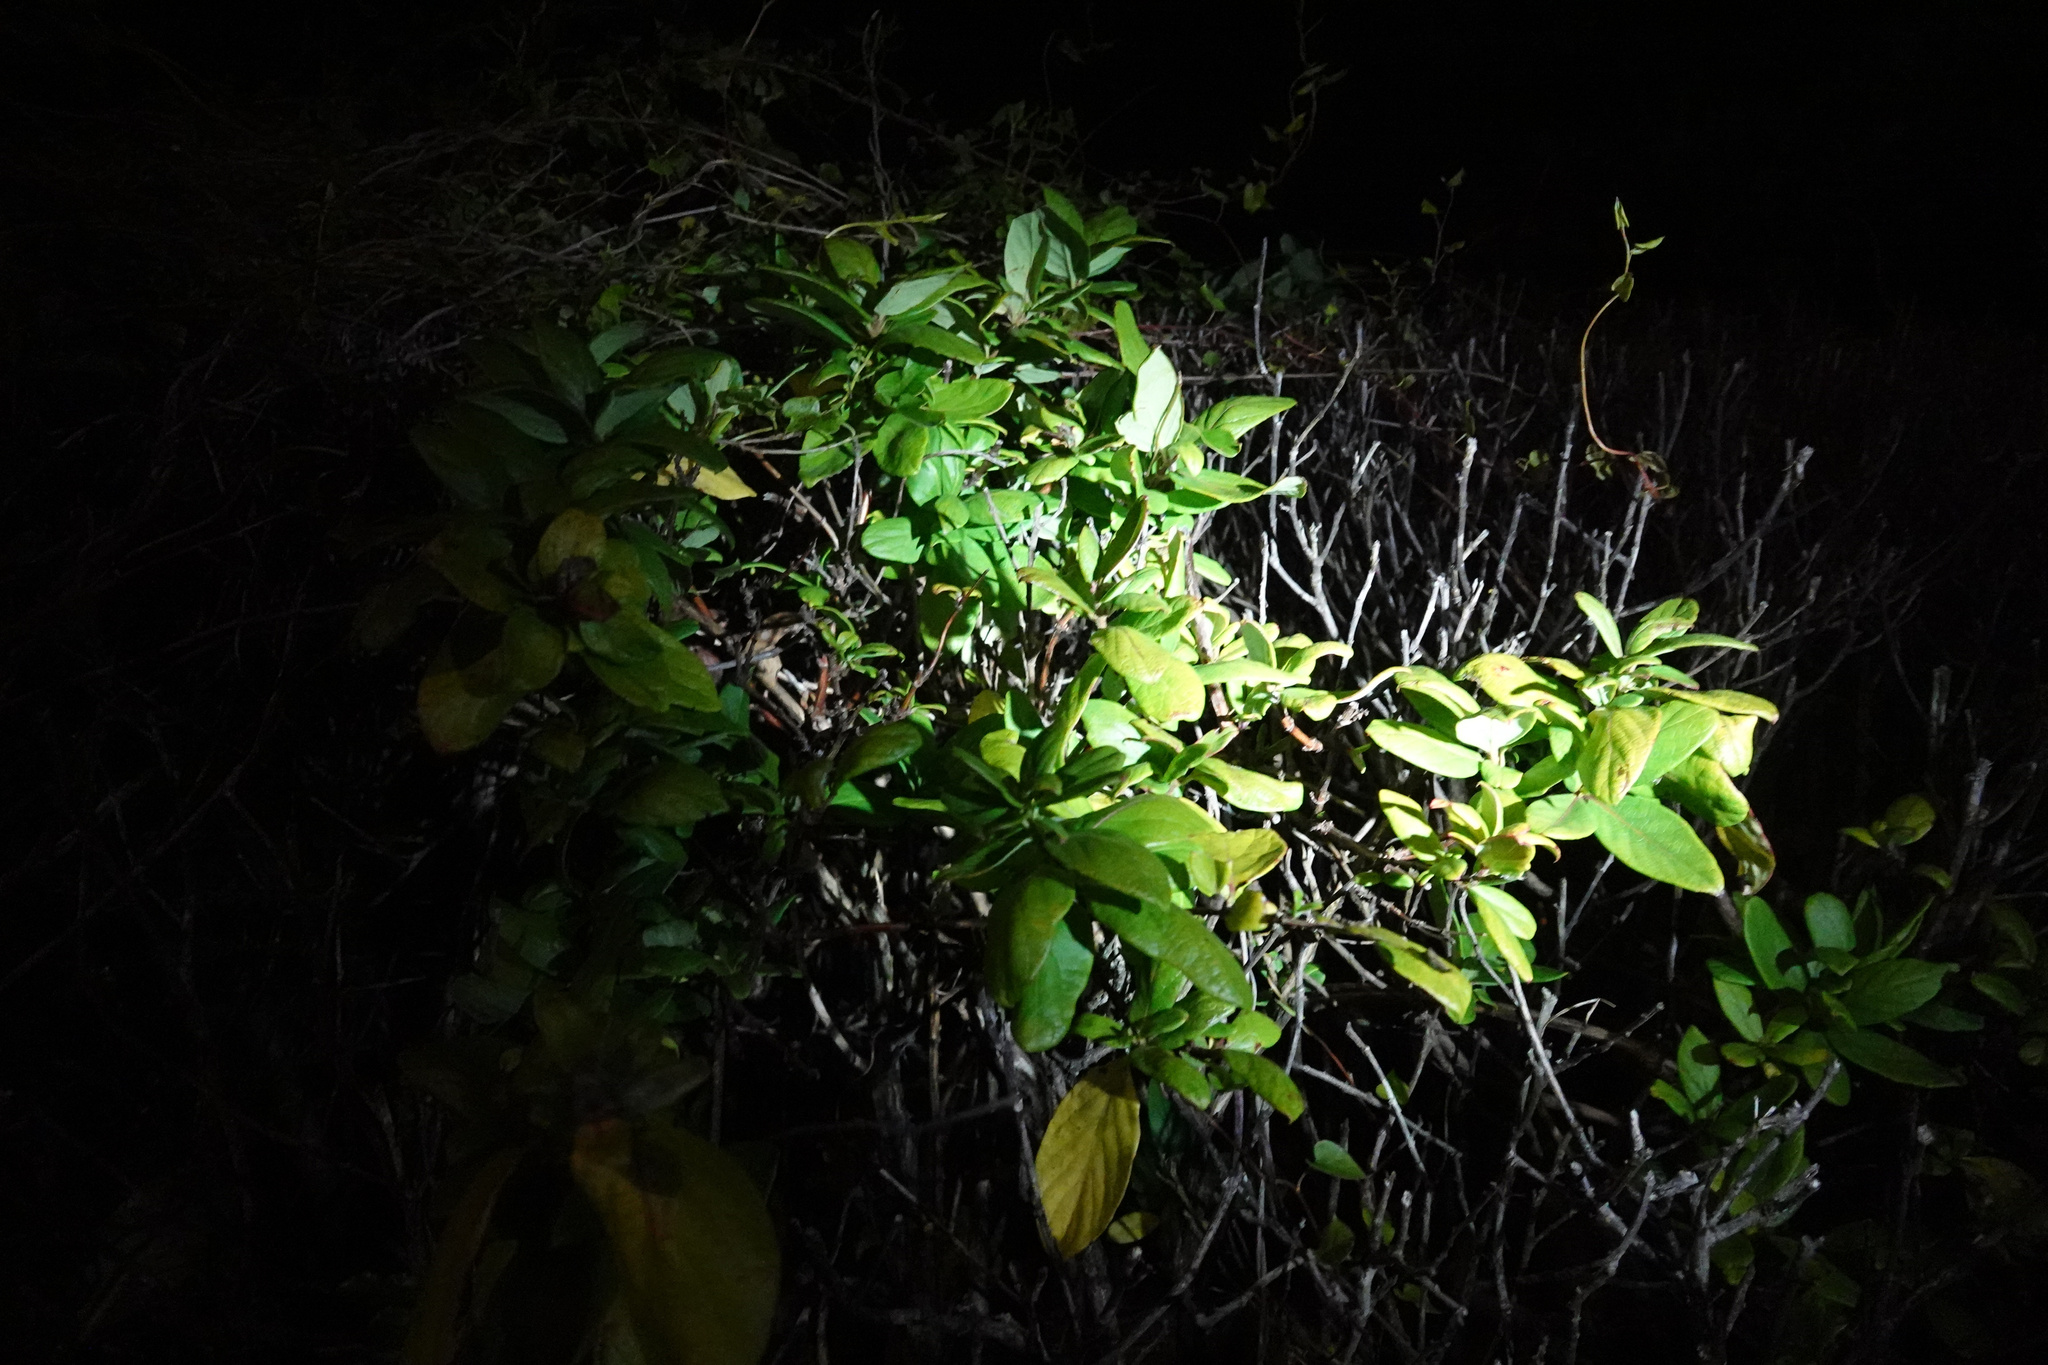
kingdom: Plantae
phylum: Tracheophyta
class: Magnoliopsida
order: Dipsacales
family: Caprifoliaceae
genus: Lonicera
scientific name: Lonicera japonica
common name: Japanese honeysuckle
